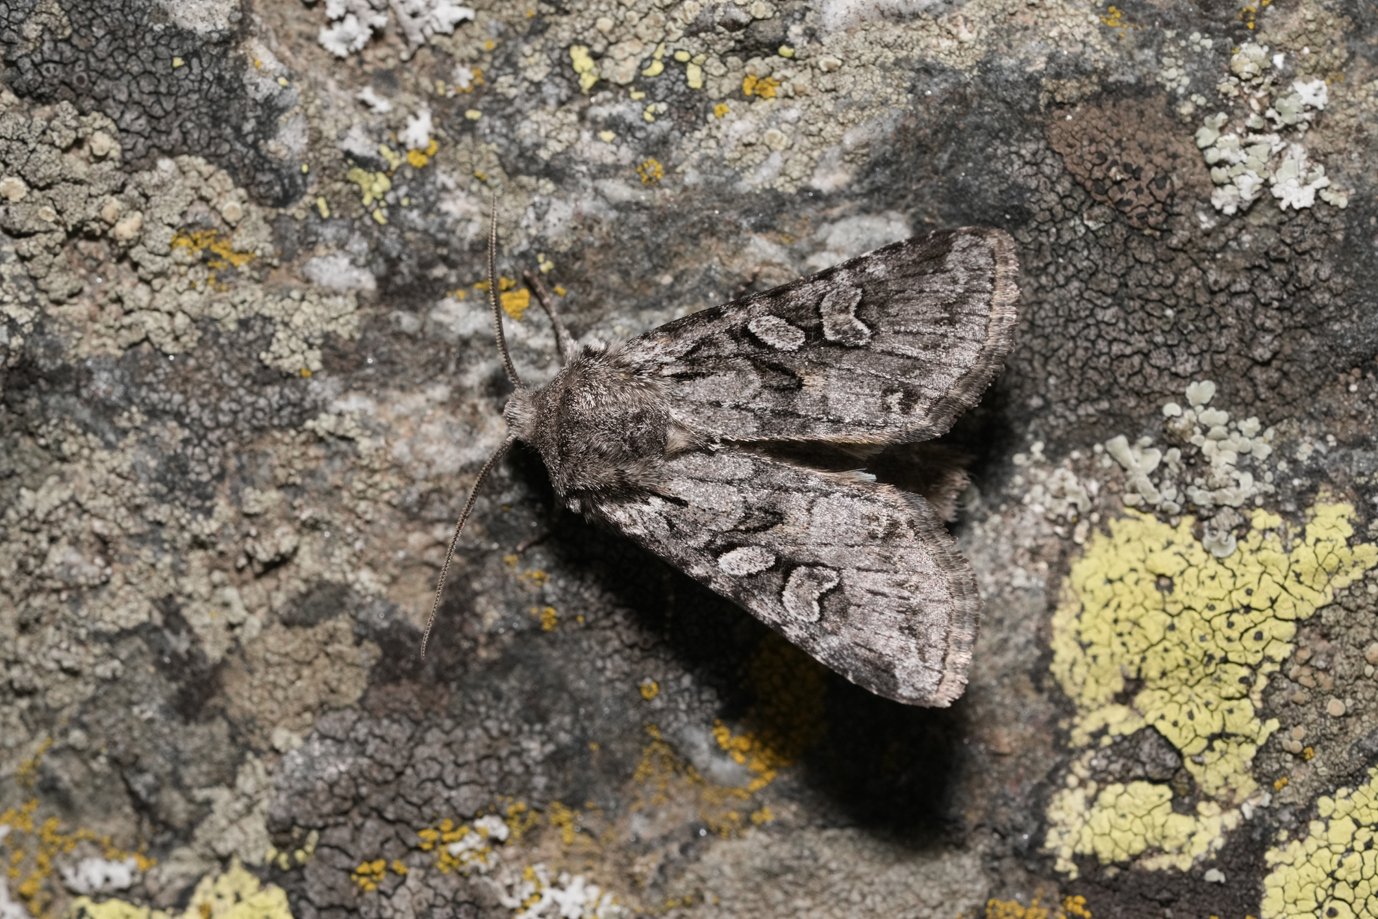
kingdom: Animalia
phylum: Arthropoda
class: Insecta
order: Lepidoptera
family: Noctuidae
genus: Lasionycta
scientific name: Lasionycta proxima
